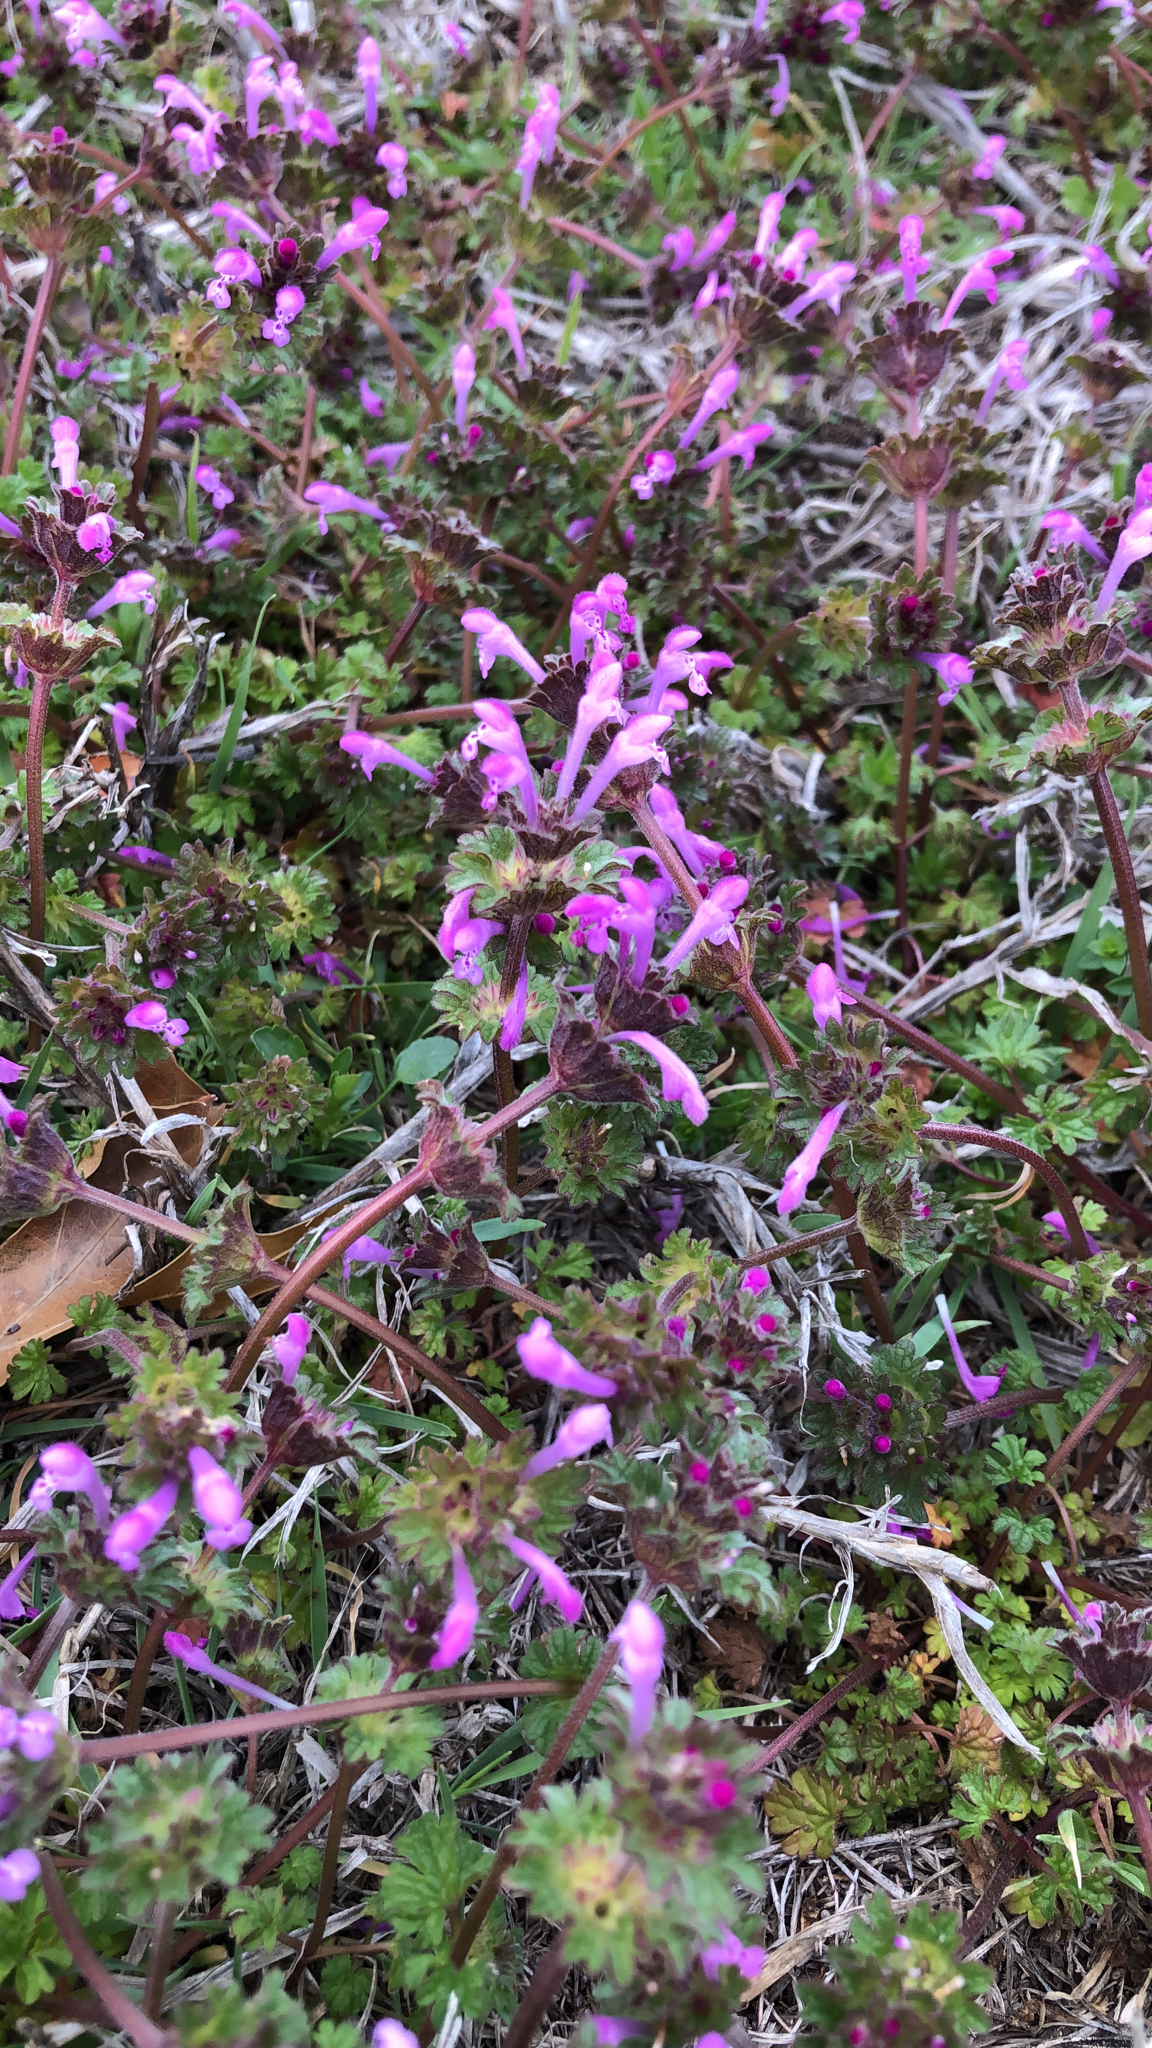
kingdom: Plantae
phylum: Tracheophyta
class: Magnoliopsida
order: Lamiales
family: Lamiaceae
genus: Lamium
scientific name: Lamium amplexicaule
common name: Henbit dead-nettle
